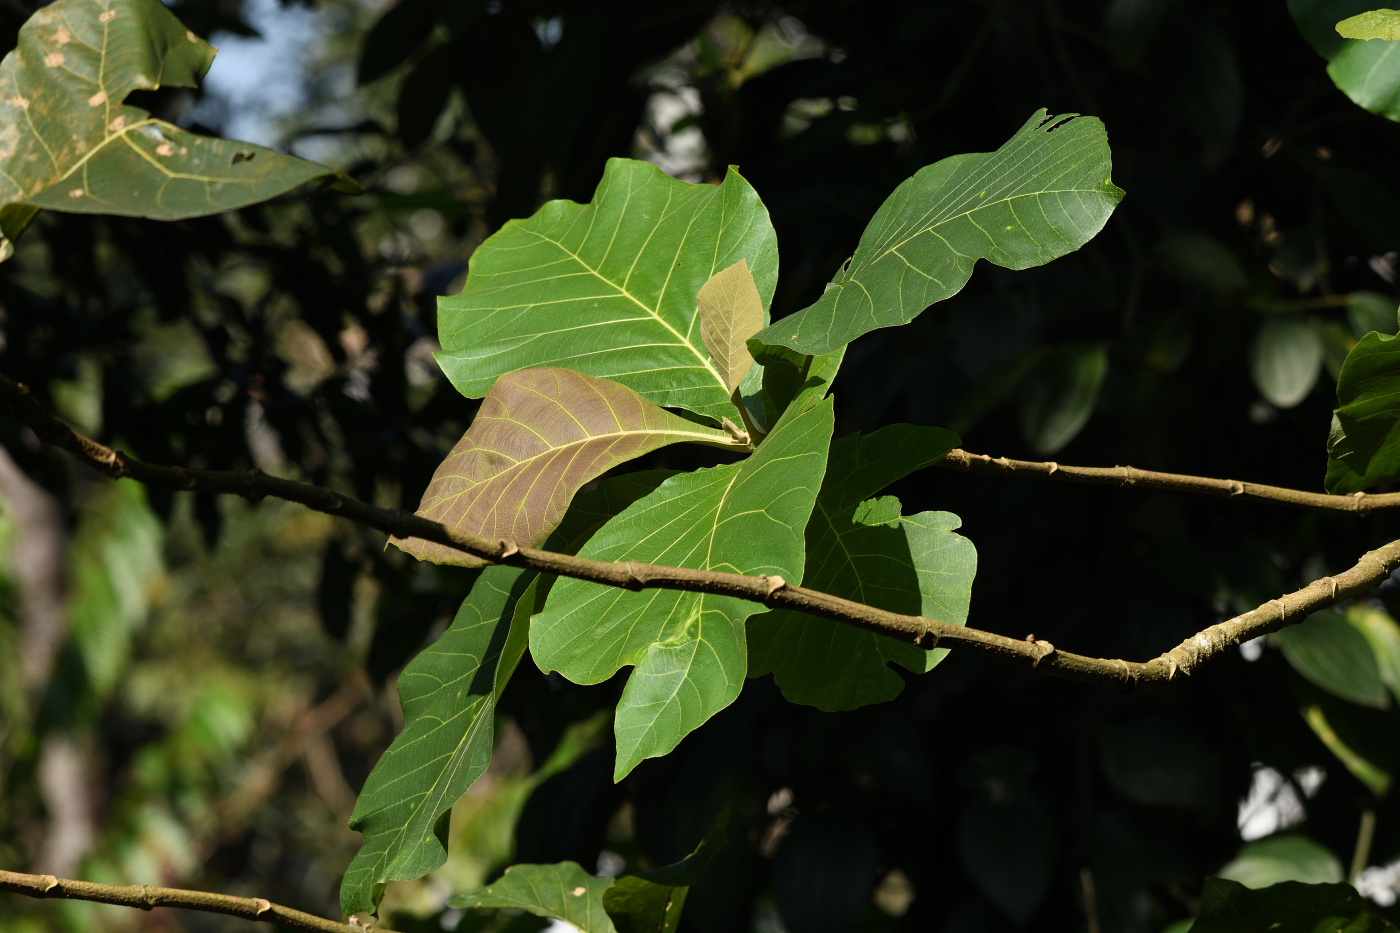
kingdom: Plantae
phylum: Tracheophyta
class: Magnoliopsida
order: Lamiales
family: Lamiaceae
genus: Tectona
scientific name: Tectona grandis
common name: Teak
